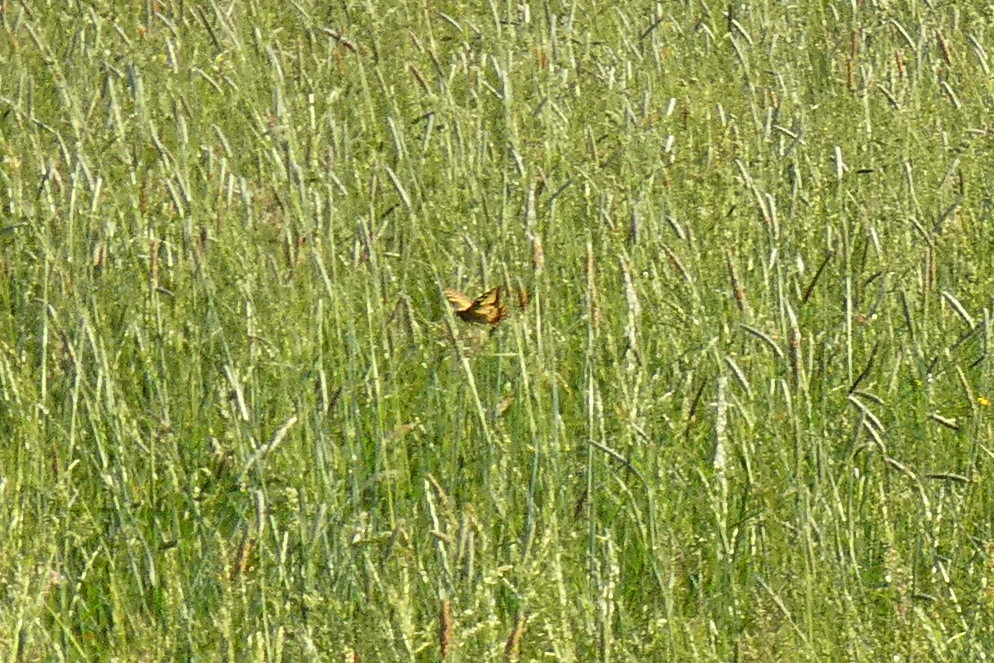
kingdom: Animalia
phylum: Arthropoda
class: Insecta
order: Lepidoptera
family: Papilionidae
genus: Papilio
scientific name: Papilio machaon
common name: Swallowtail
